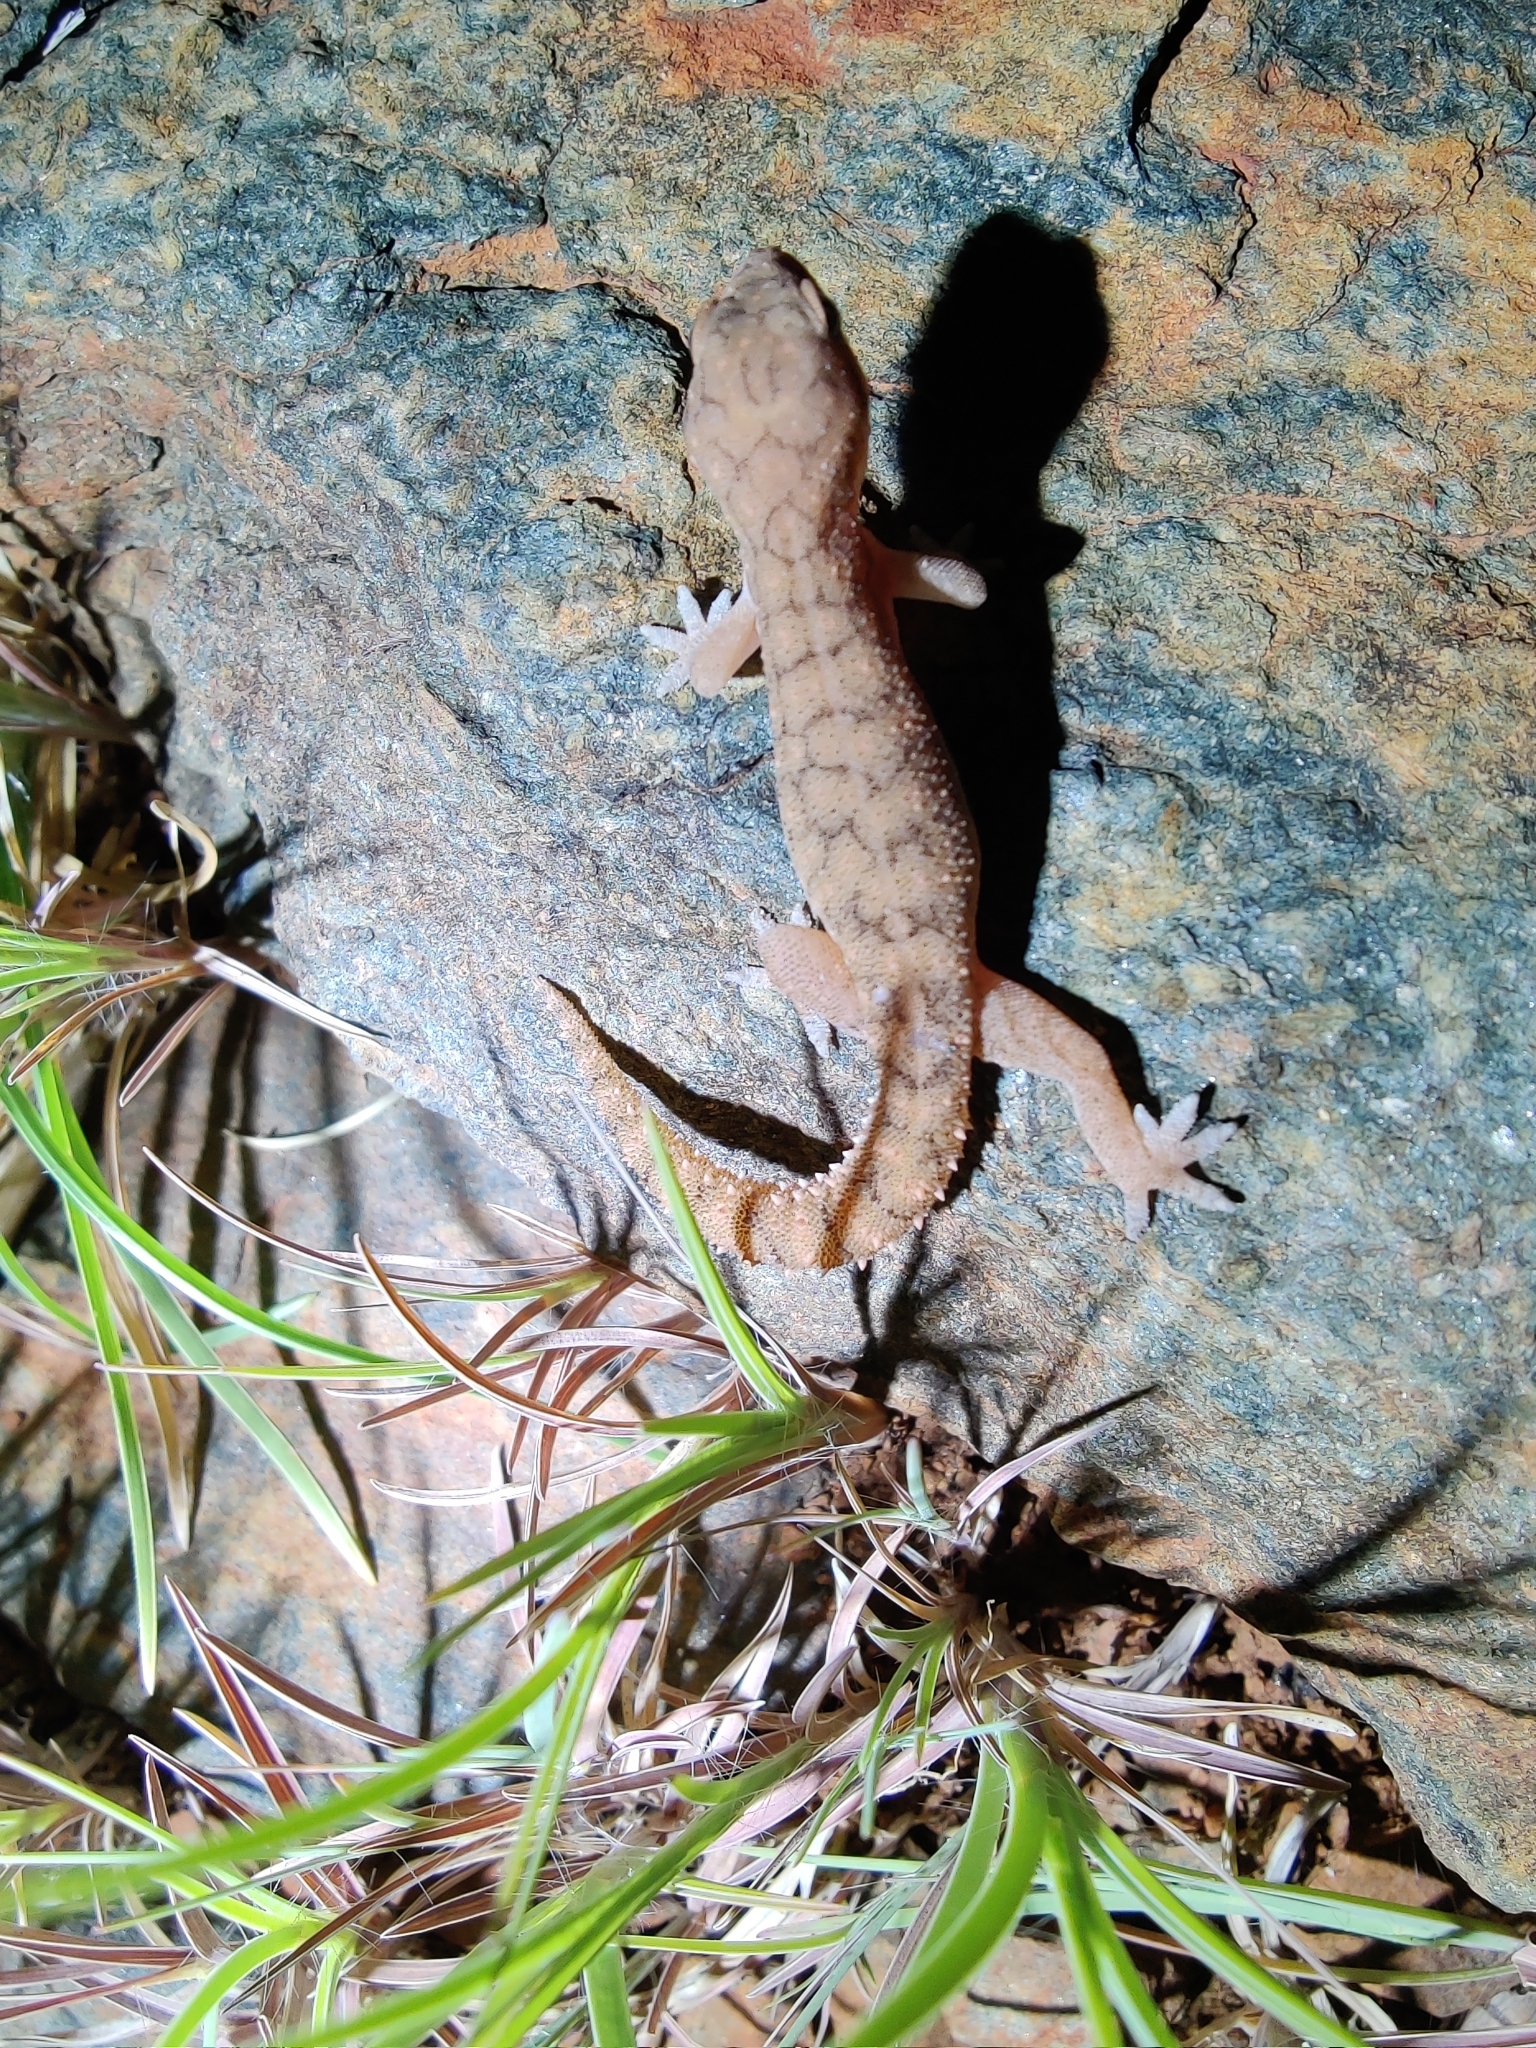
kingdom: Animalia
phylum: Chordata
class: Squamata
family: Gekkonidae
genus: Hemidactylus
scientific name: Hemidactylus reticulatus
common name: Reticulate leaf-toed gecko
